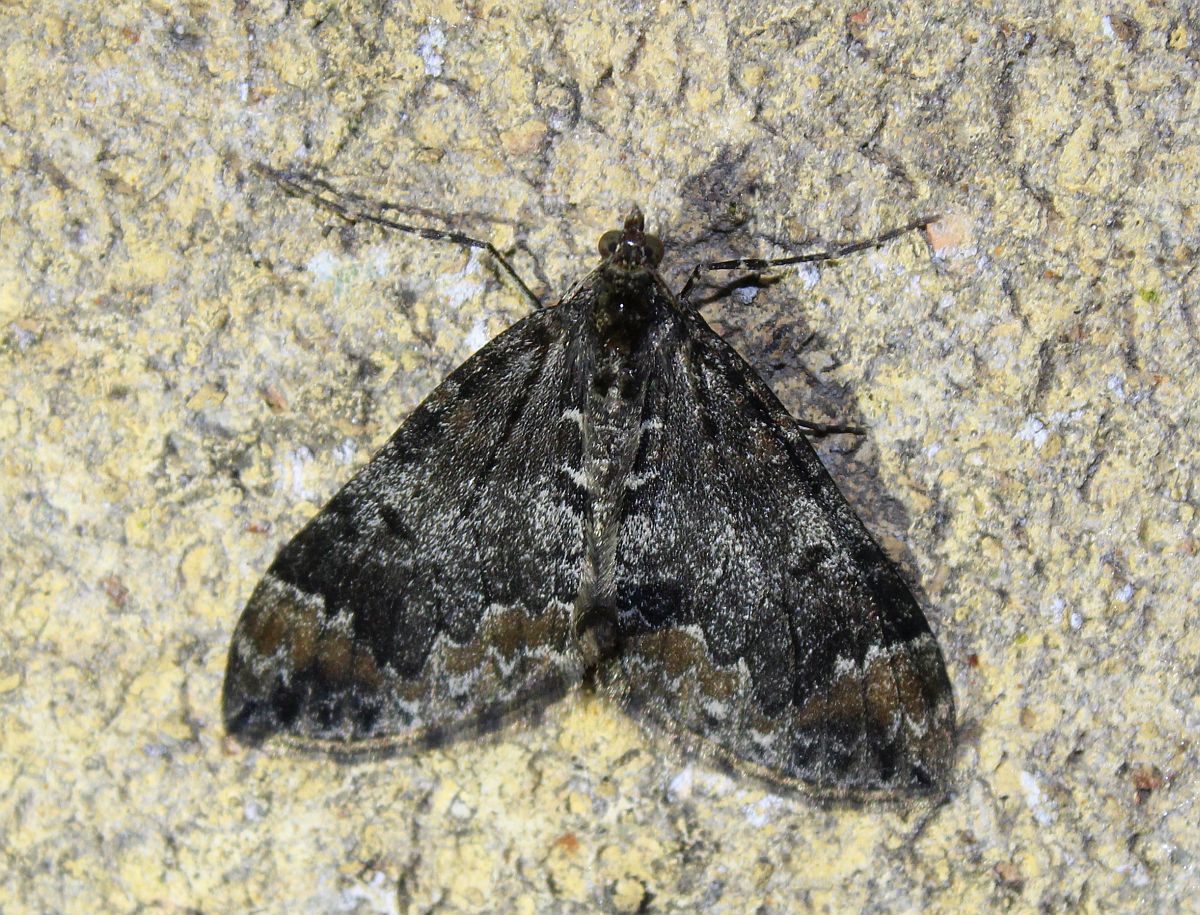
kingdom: Animalia
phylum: Arthropoda
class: Insecta
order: Lepidoptera
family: Geometridae
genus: Dysstroma
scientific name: Dysstroma truncata
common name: Common marbled carpet
